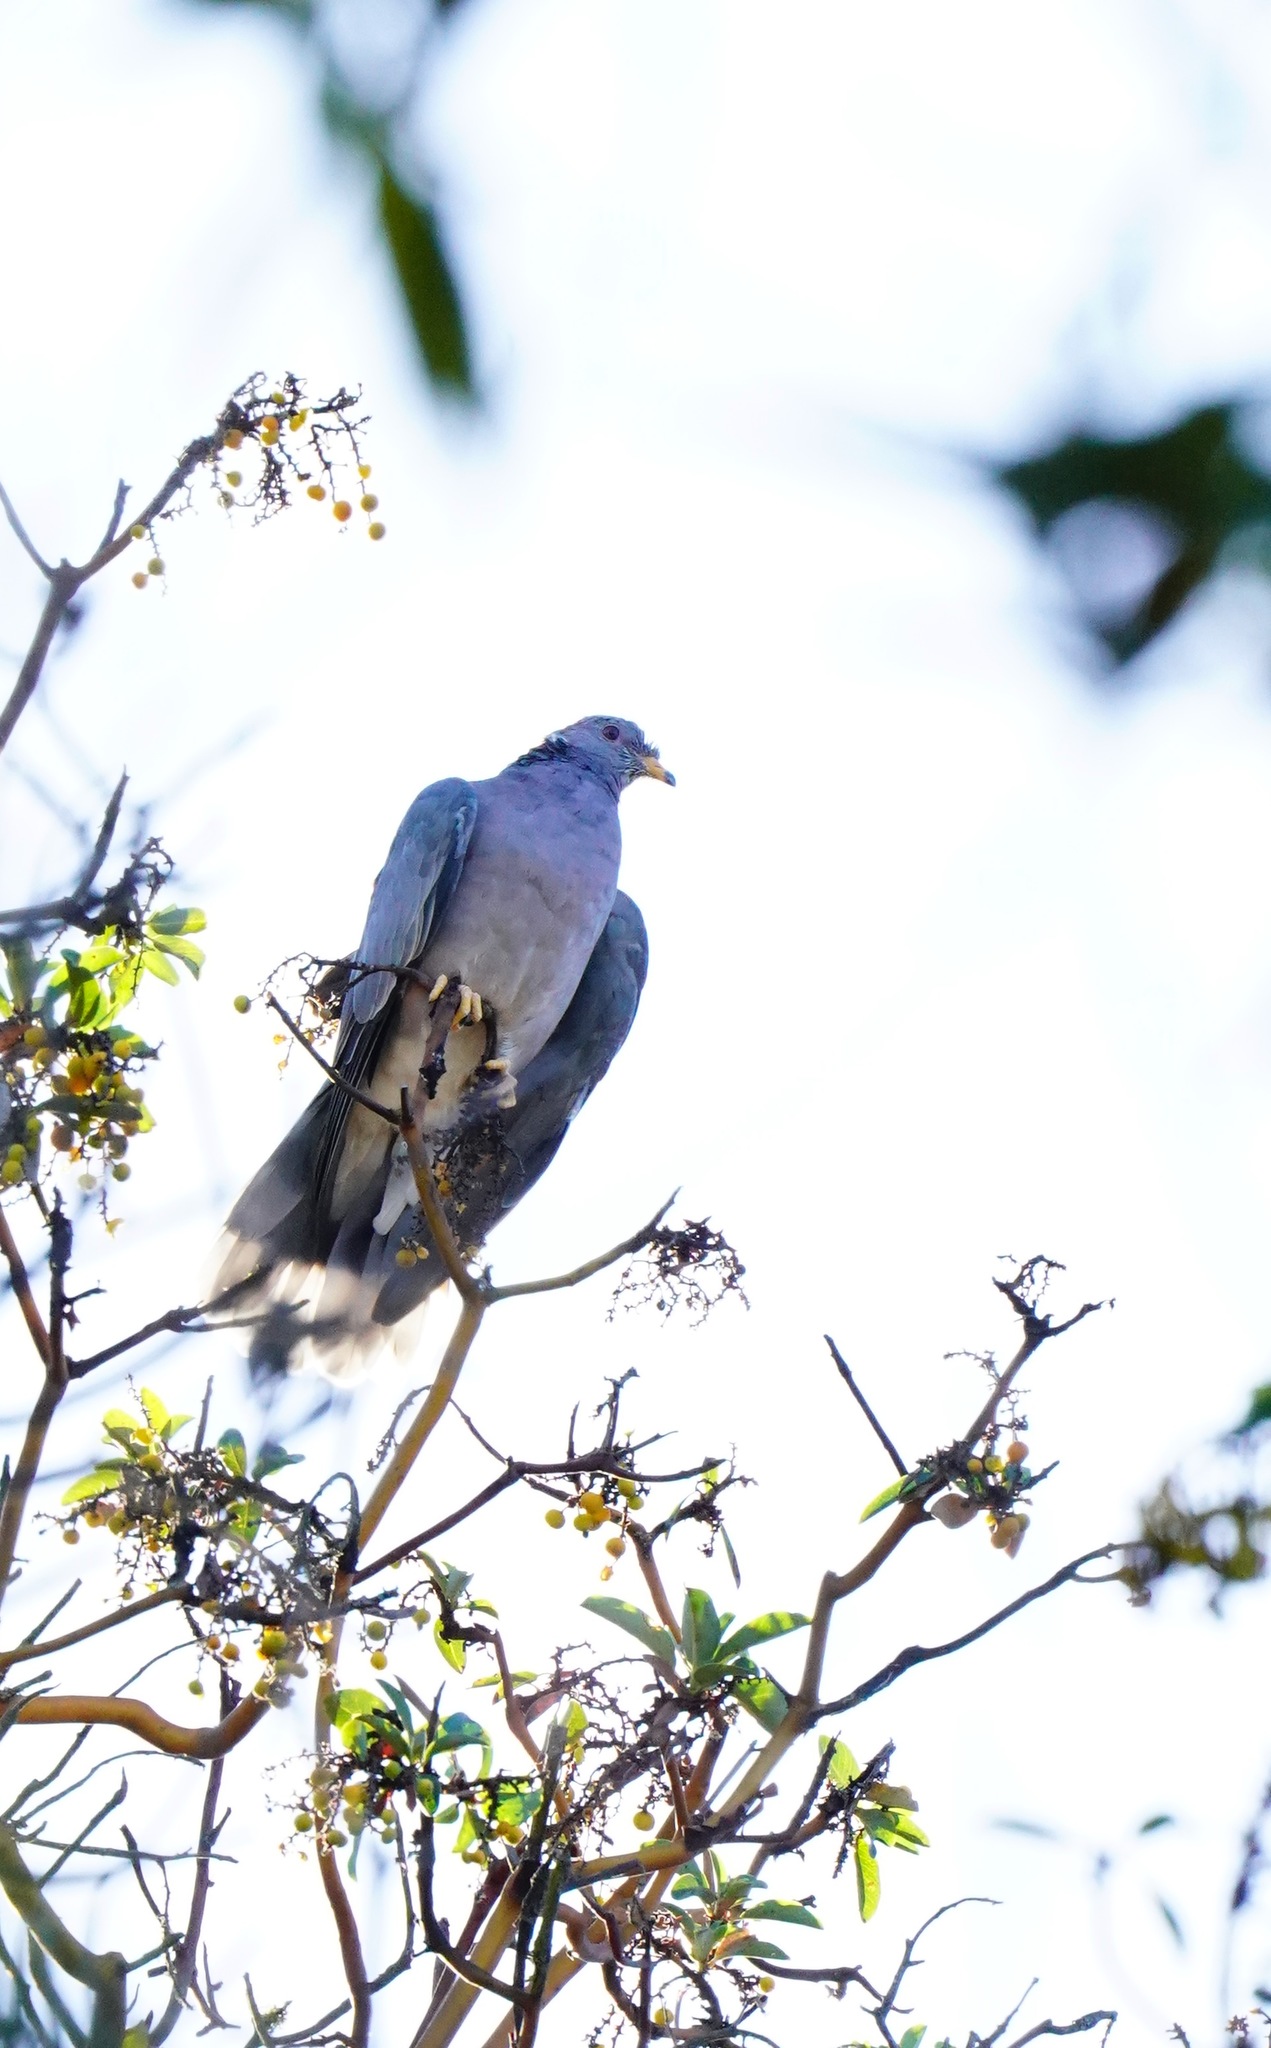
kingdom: Animalia
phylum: Chordata
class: Aves
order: Columbiformes
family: Columbidae
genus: Patagioenas
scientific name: Patagioenas fasciata
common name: Band-tailed pigeon
